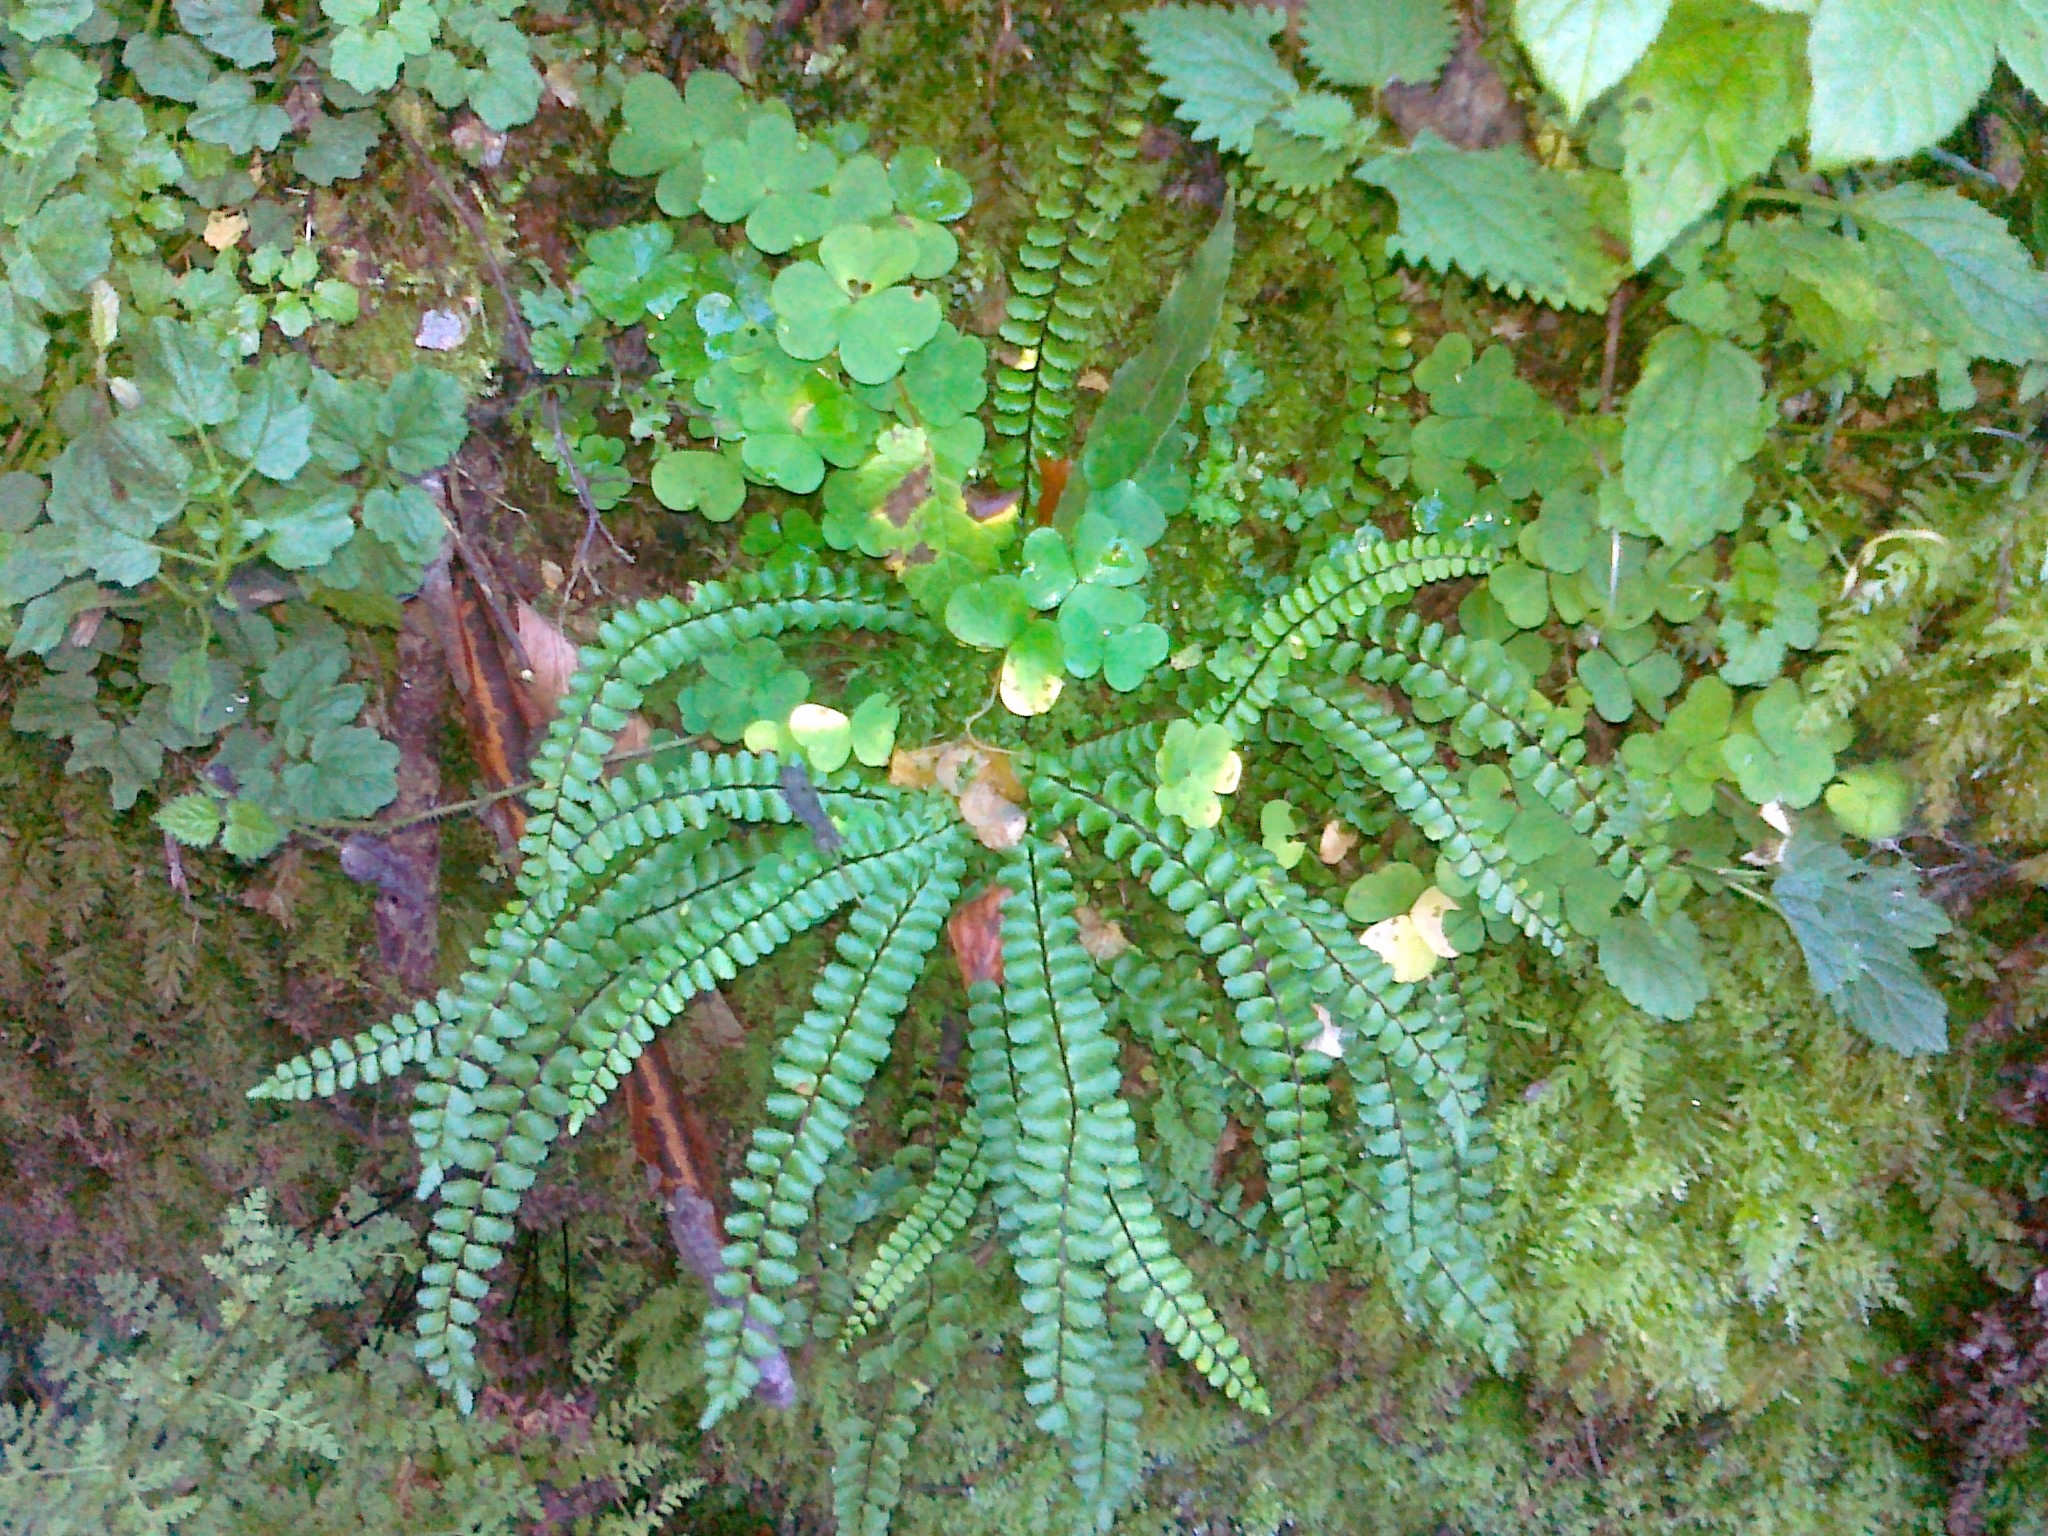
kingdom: Plantae
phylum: Tracheophyta
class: Polypodiopsida
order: Polypodiales
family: Aspleniaceae
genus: Asplenium
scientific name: Asplenium quadrivalens
